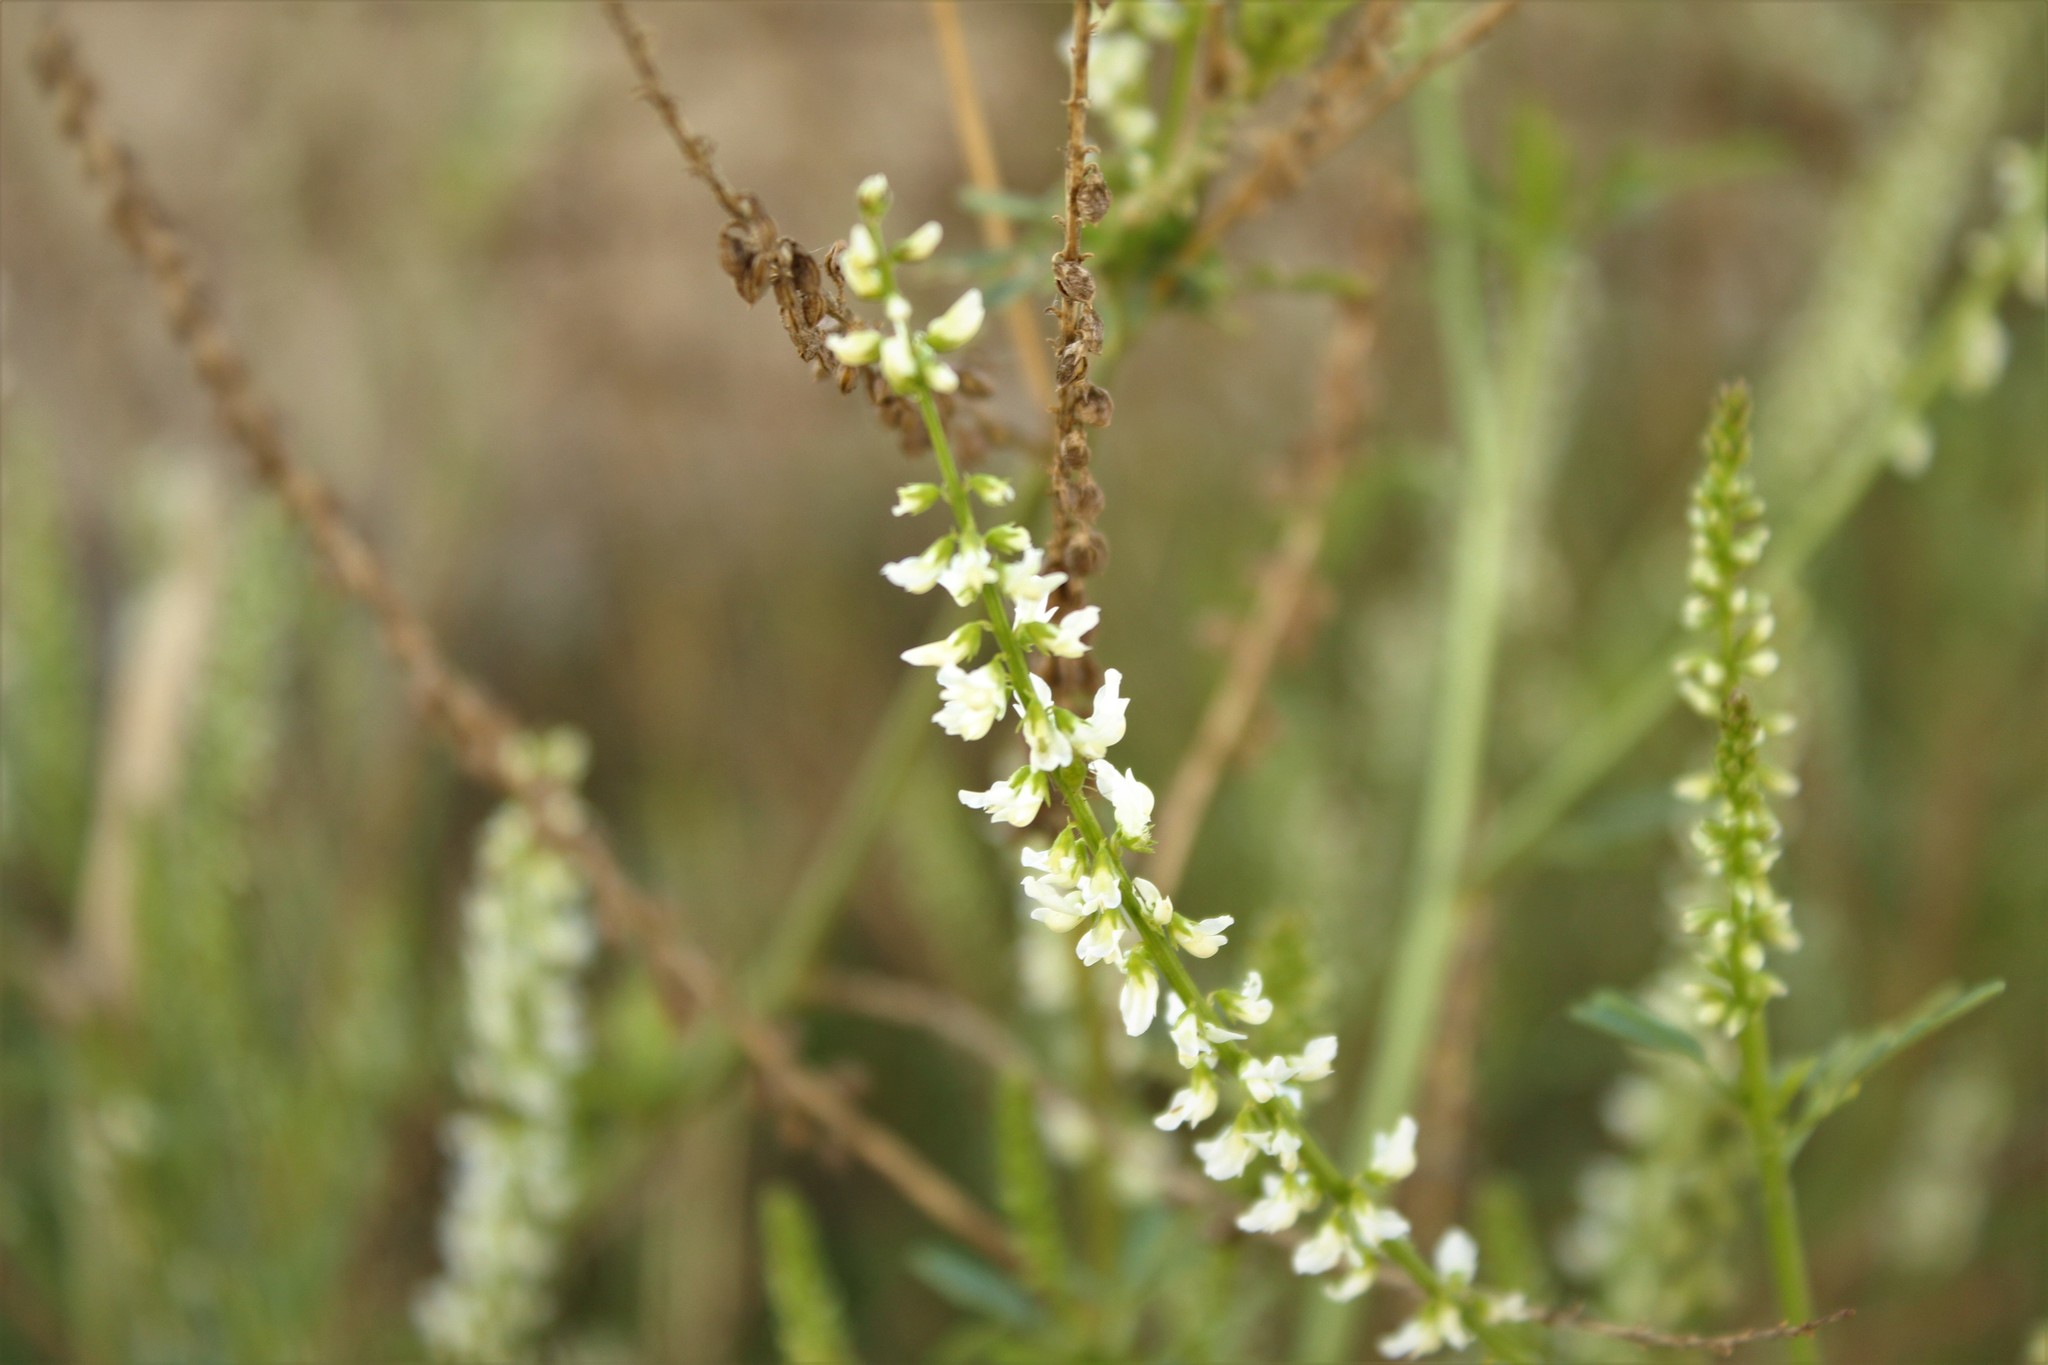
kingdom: Plantae
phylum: Tracheophyta
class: Magnoliopsida
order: Fabales
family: Fabaceae
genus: Melilotus
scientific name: Melilotus albus
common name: White melilot
